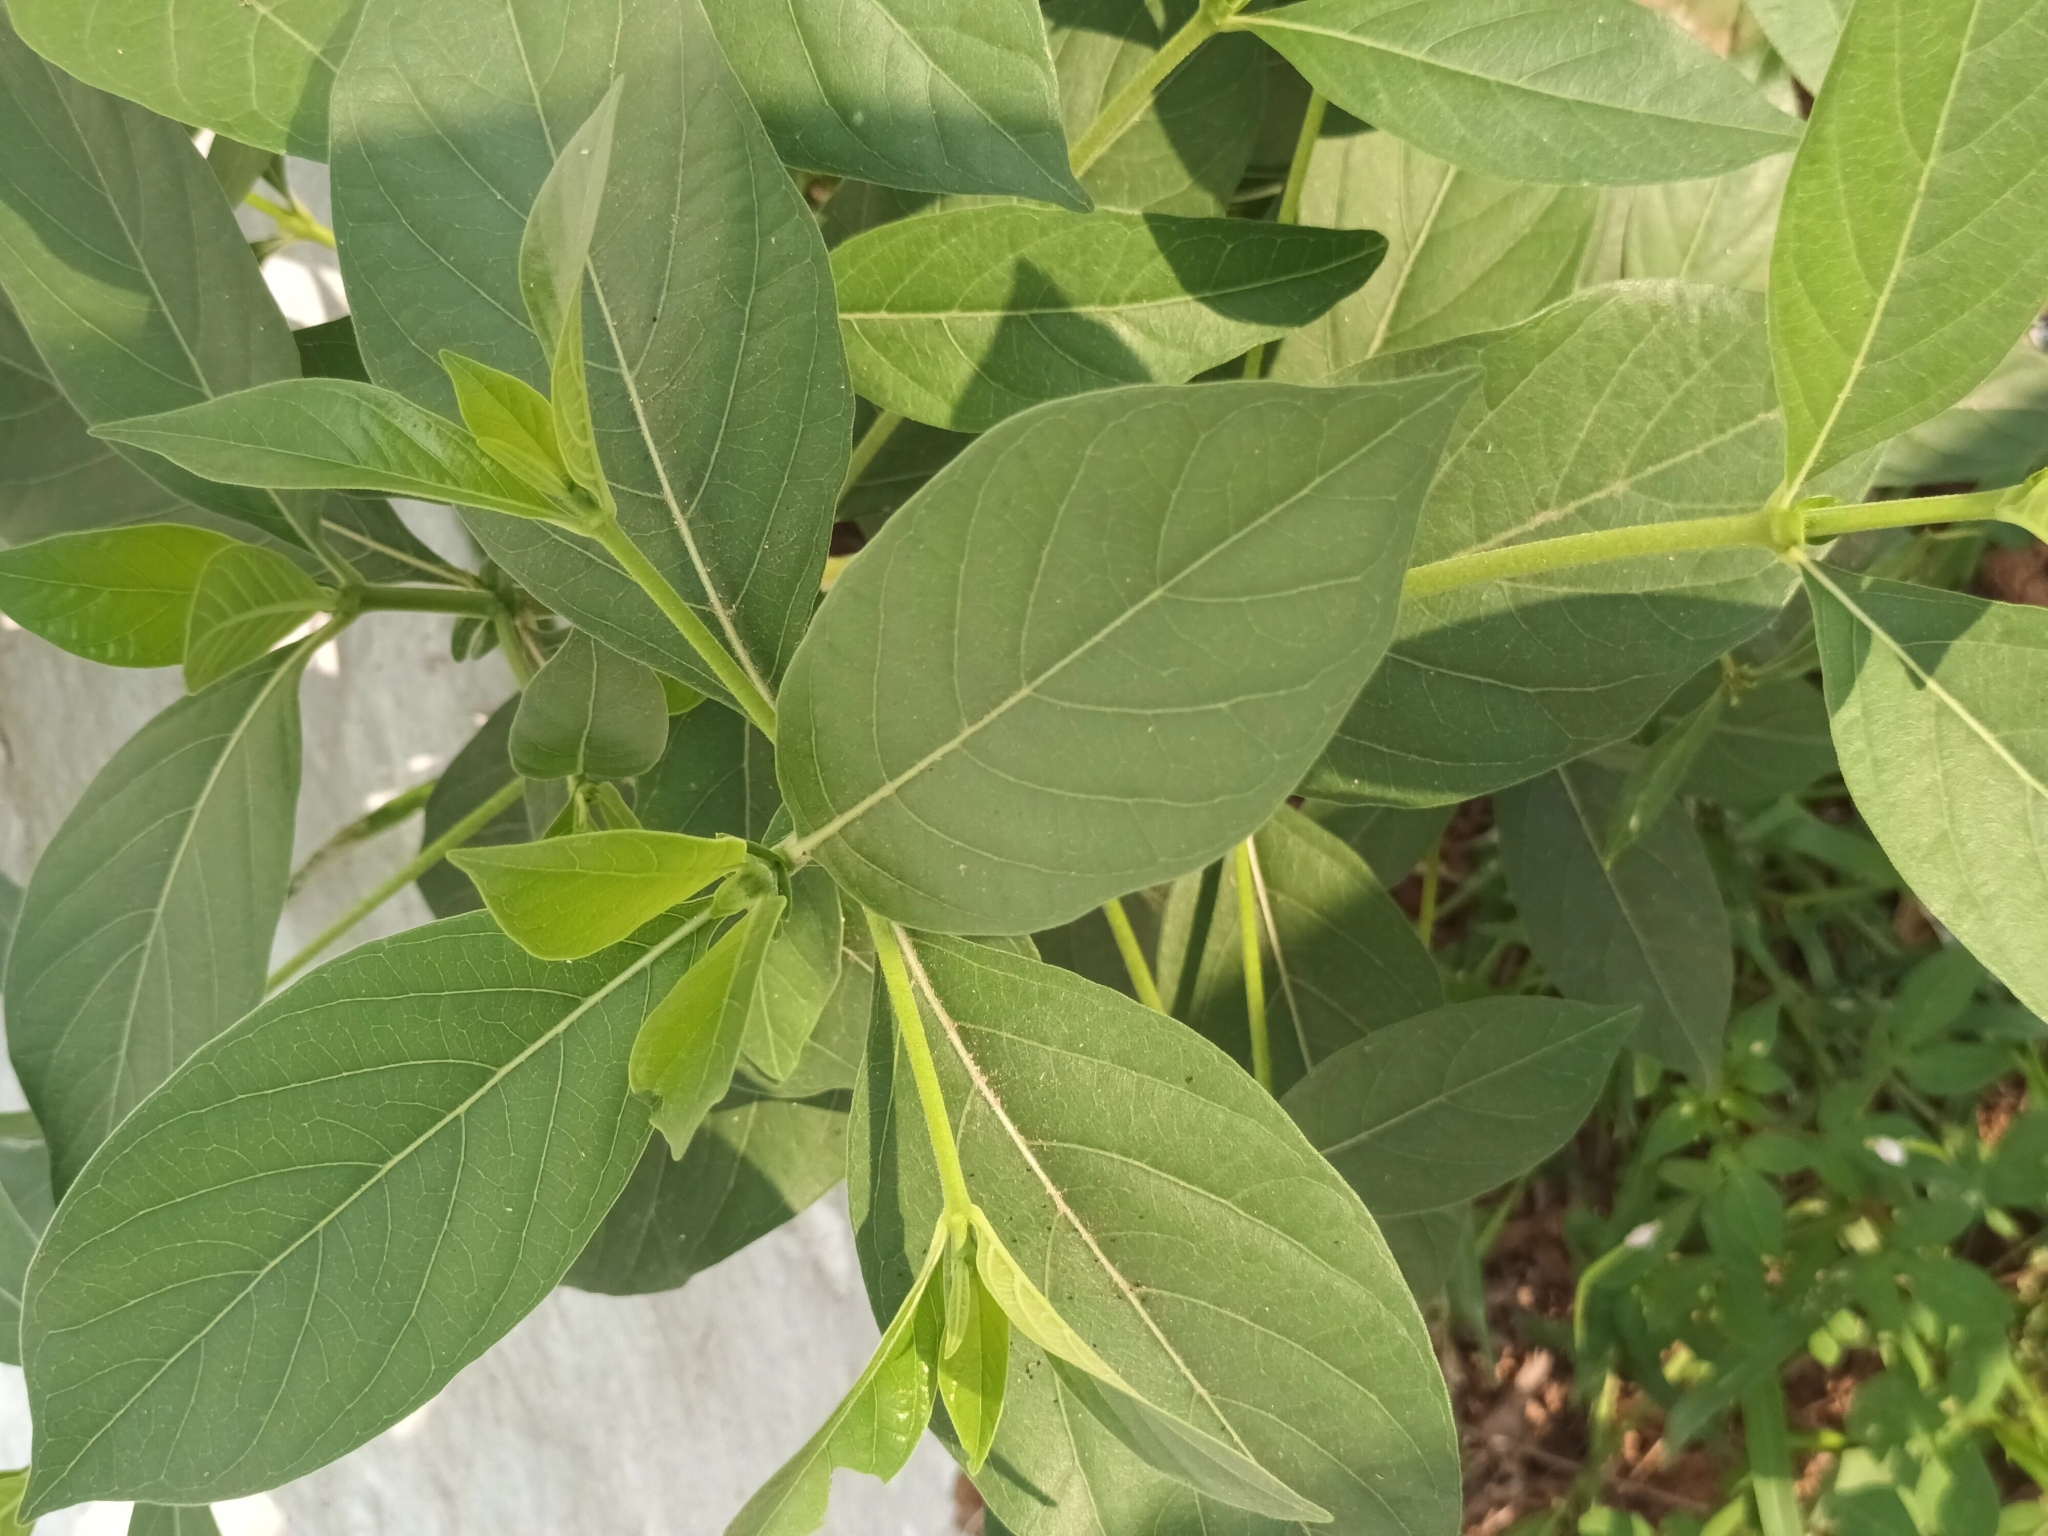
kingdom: Plantae
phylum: Tracheophyta
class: Magnoliopsida
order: Gentianales
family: Rubiaceae
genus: Morinda
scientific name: Morinda coreia
